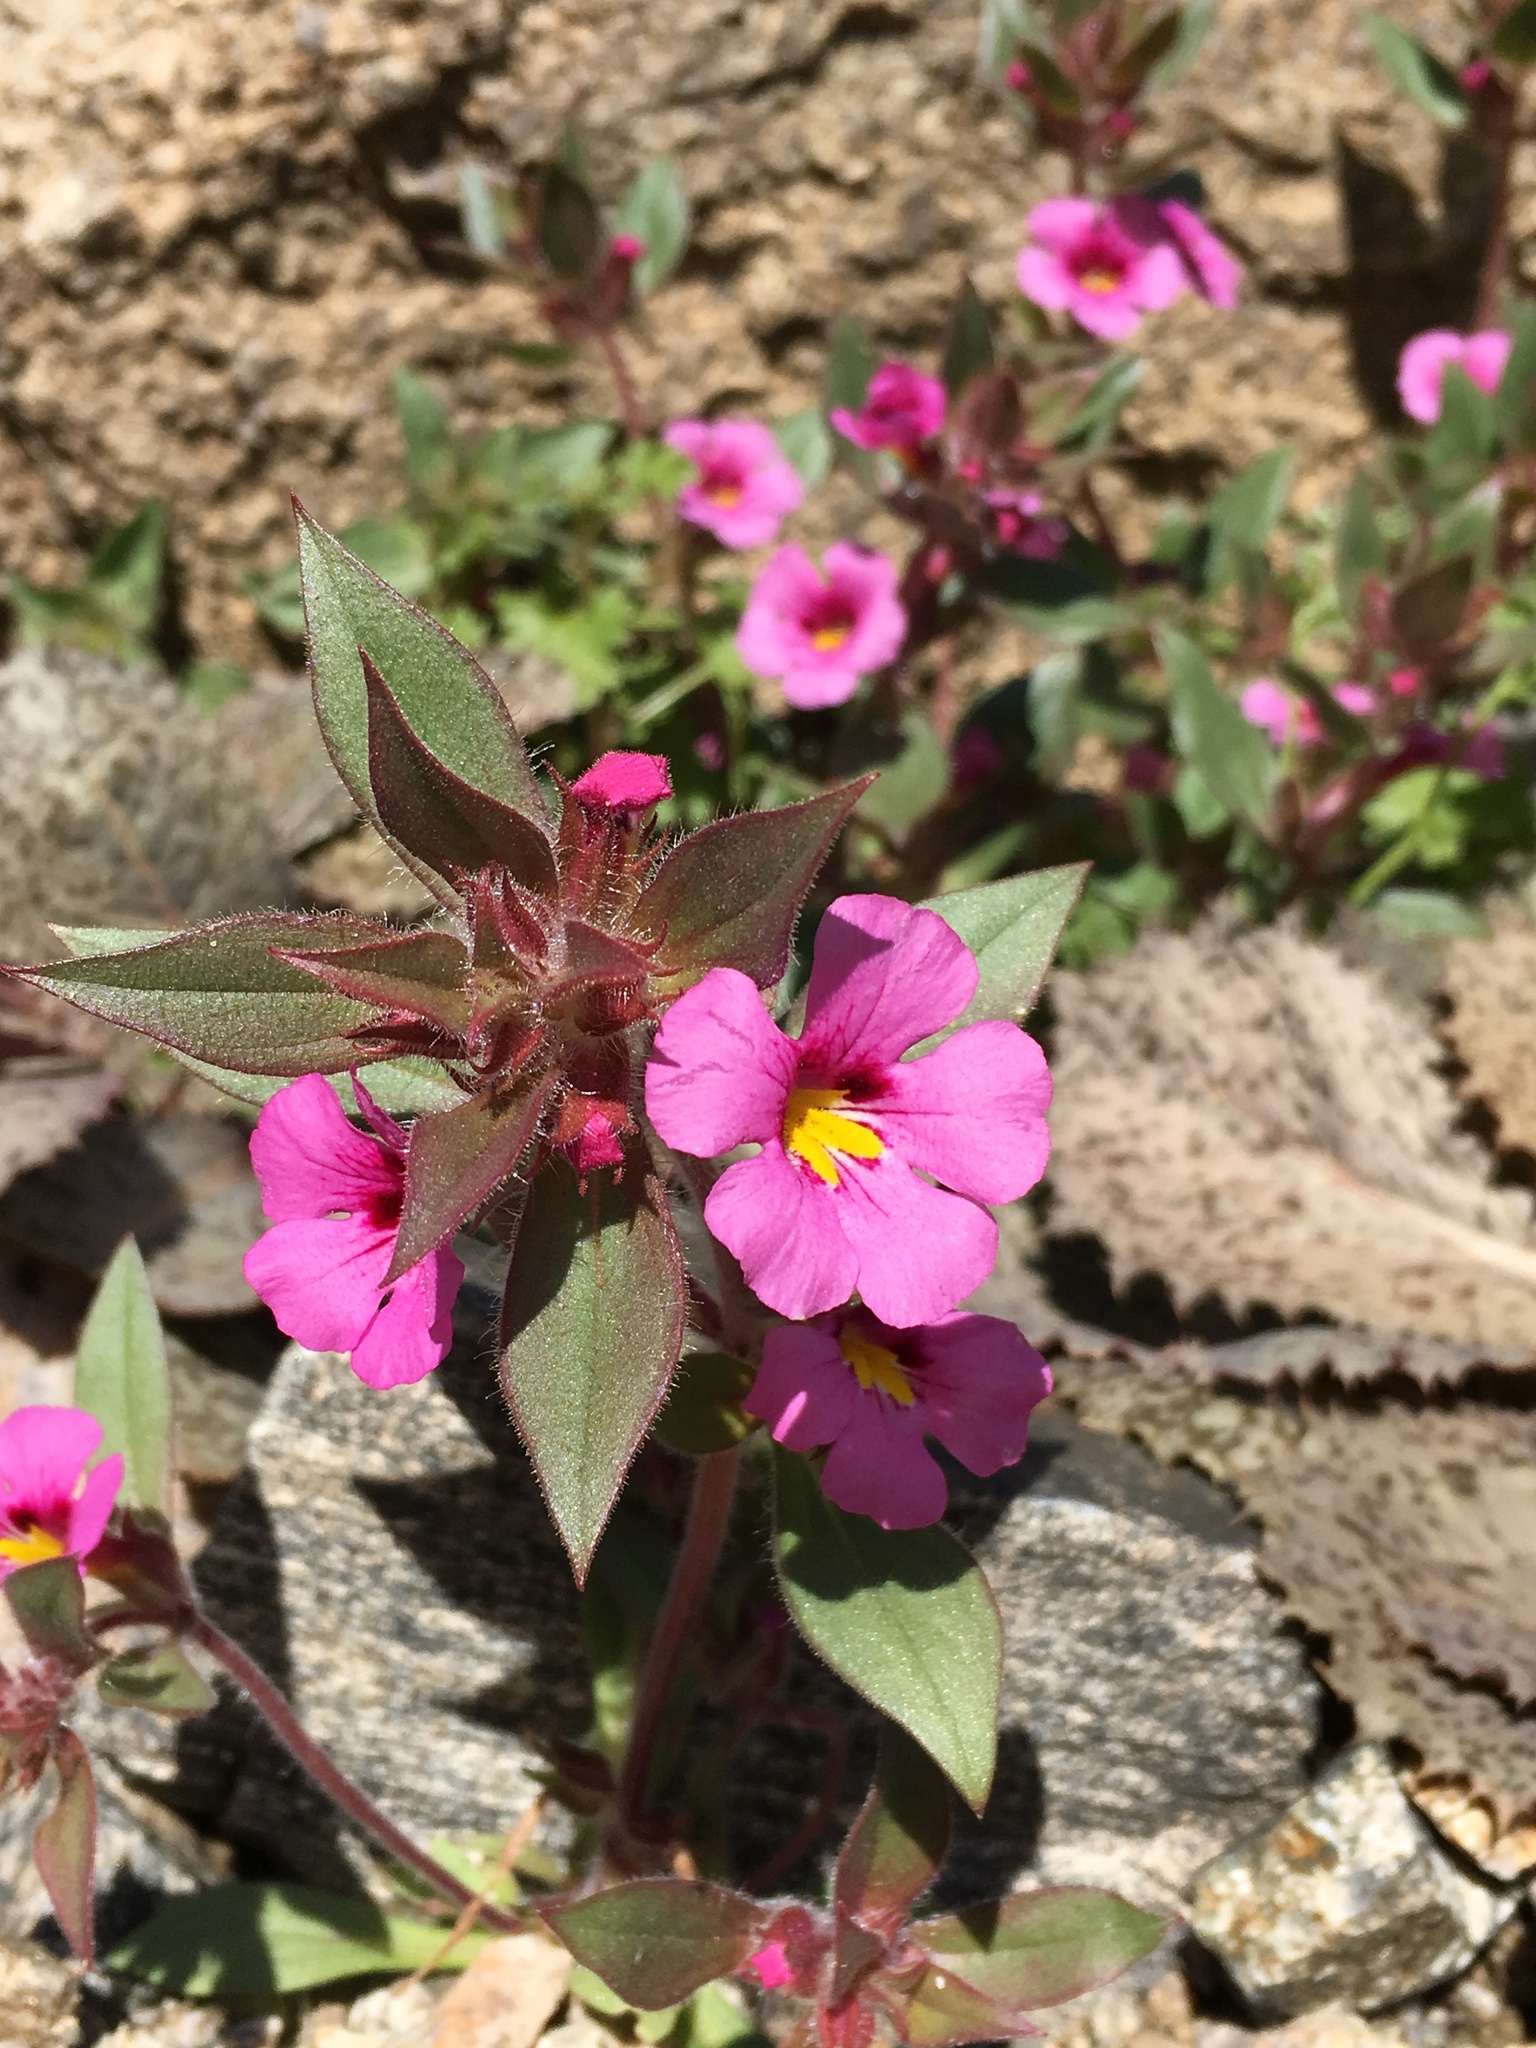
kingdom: Plantae
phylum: Tracheophyta
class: Magnoliopsida
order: Lamiales
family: Phrymaceae
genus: Diplacus
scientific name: Diplacus bigelovii
